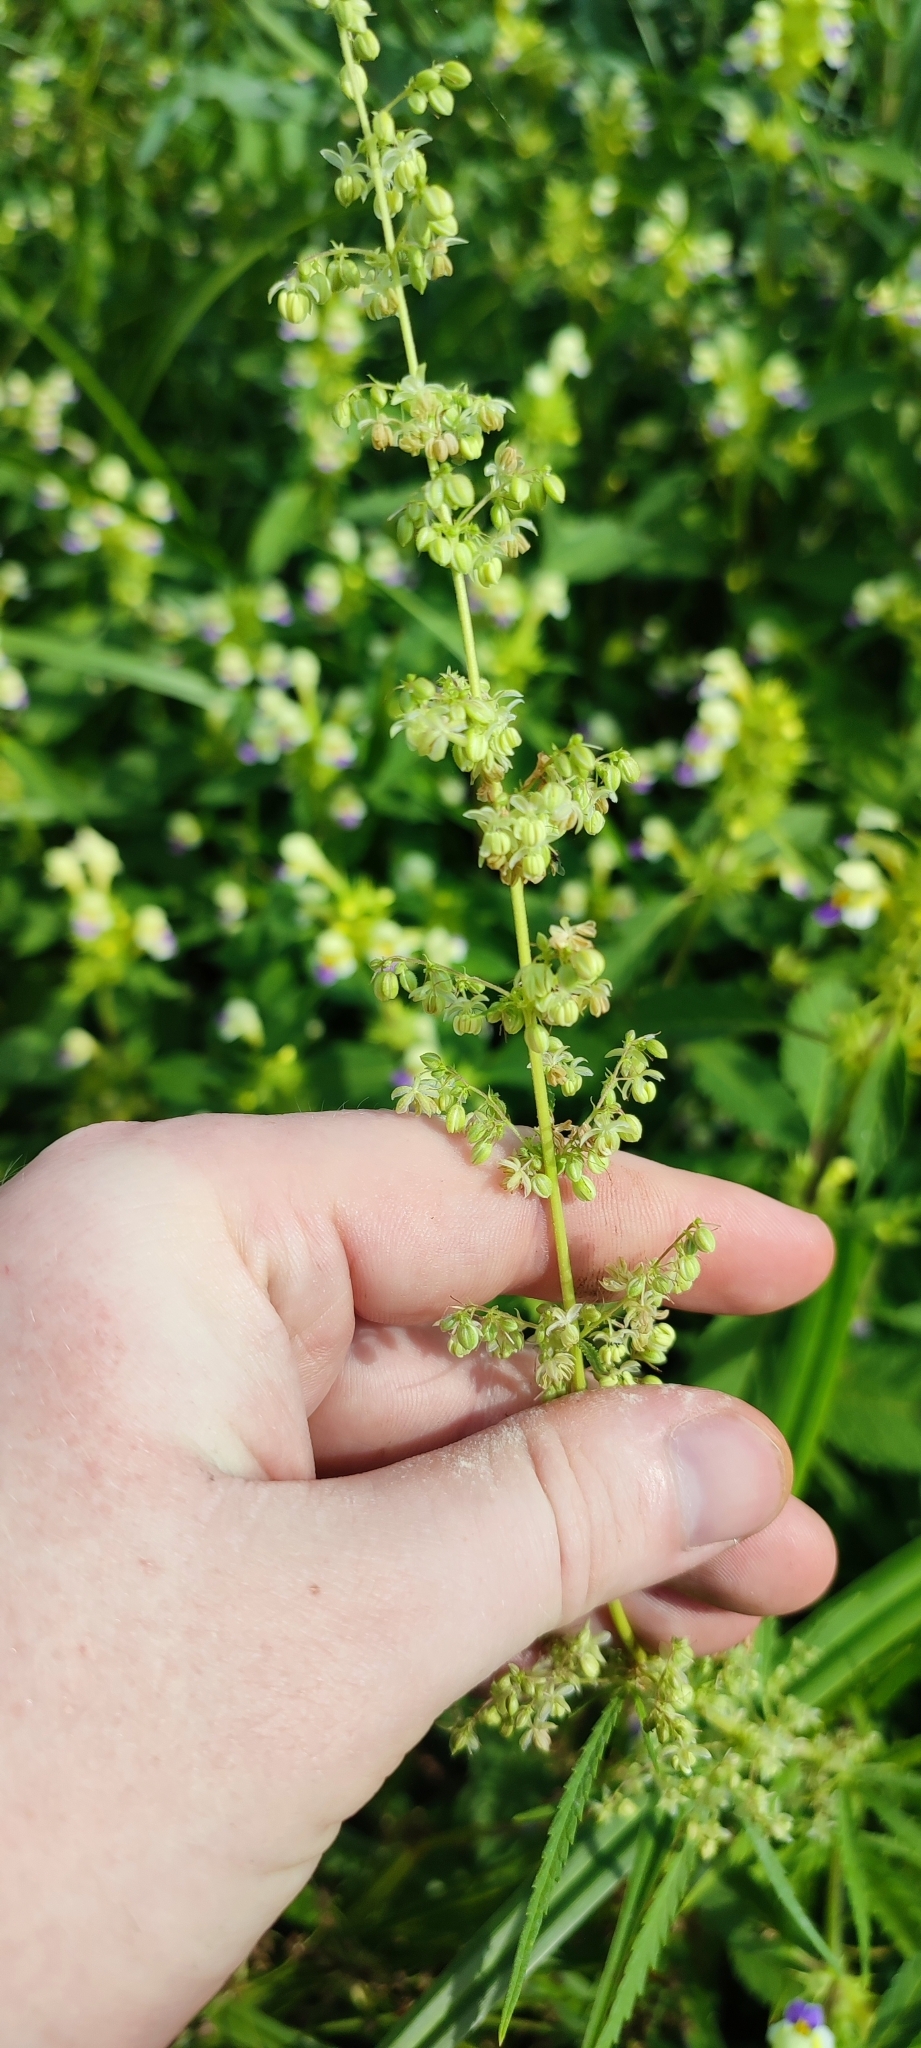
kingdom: Plantae
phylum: Tracheophyta
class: Magnoliopsida
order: Rosales
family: Cannabaceae
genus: Cannabis
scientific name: Cannabis sativa
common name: Hemp
